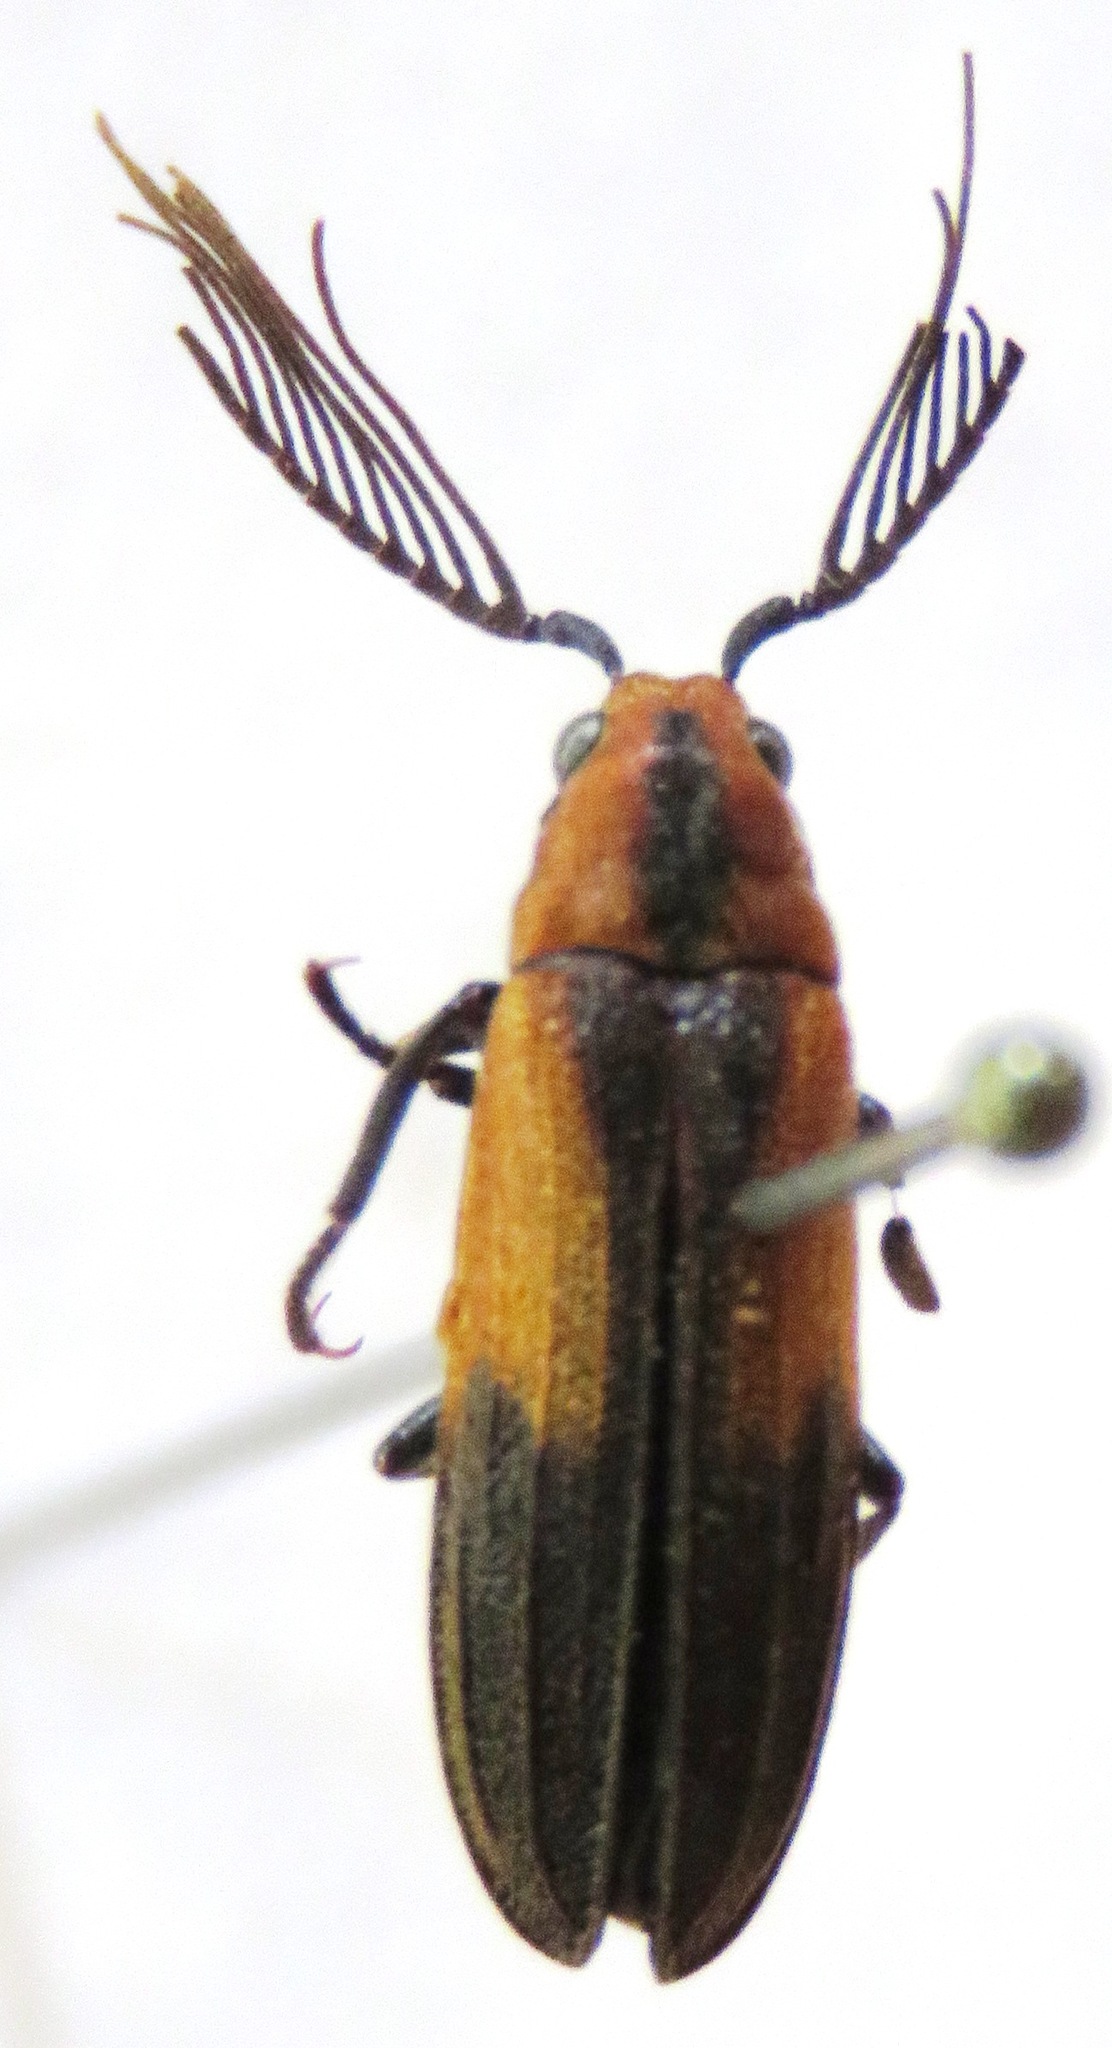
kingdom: Animalia
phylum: Arthropoda
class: Insecta
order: Coleoptera
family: Callirhipidae
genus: Celadonia
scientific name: Celadonia
